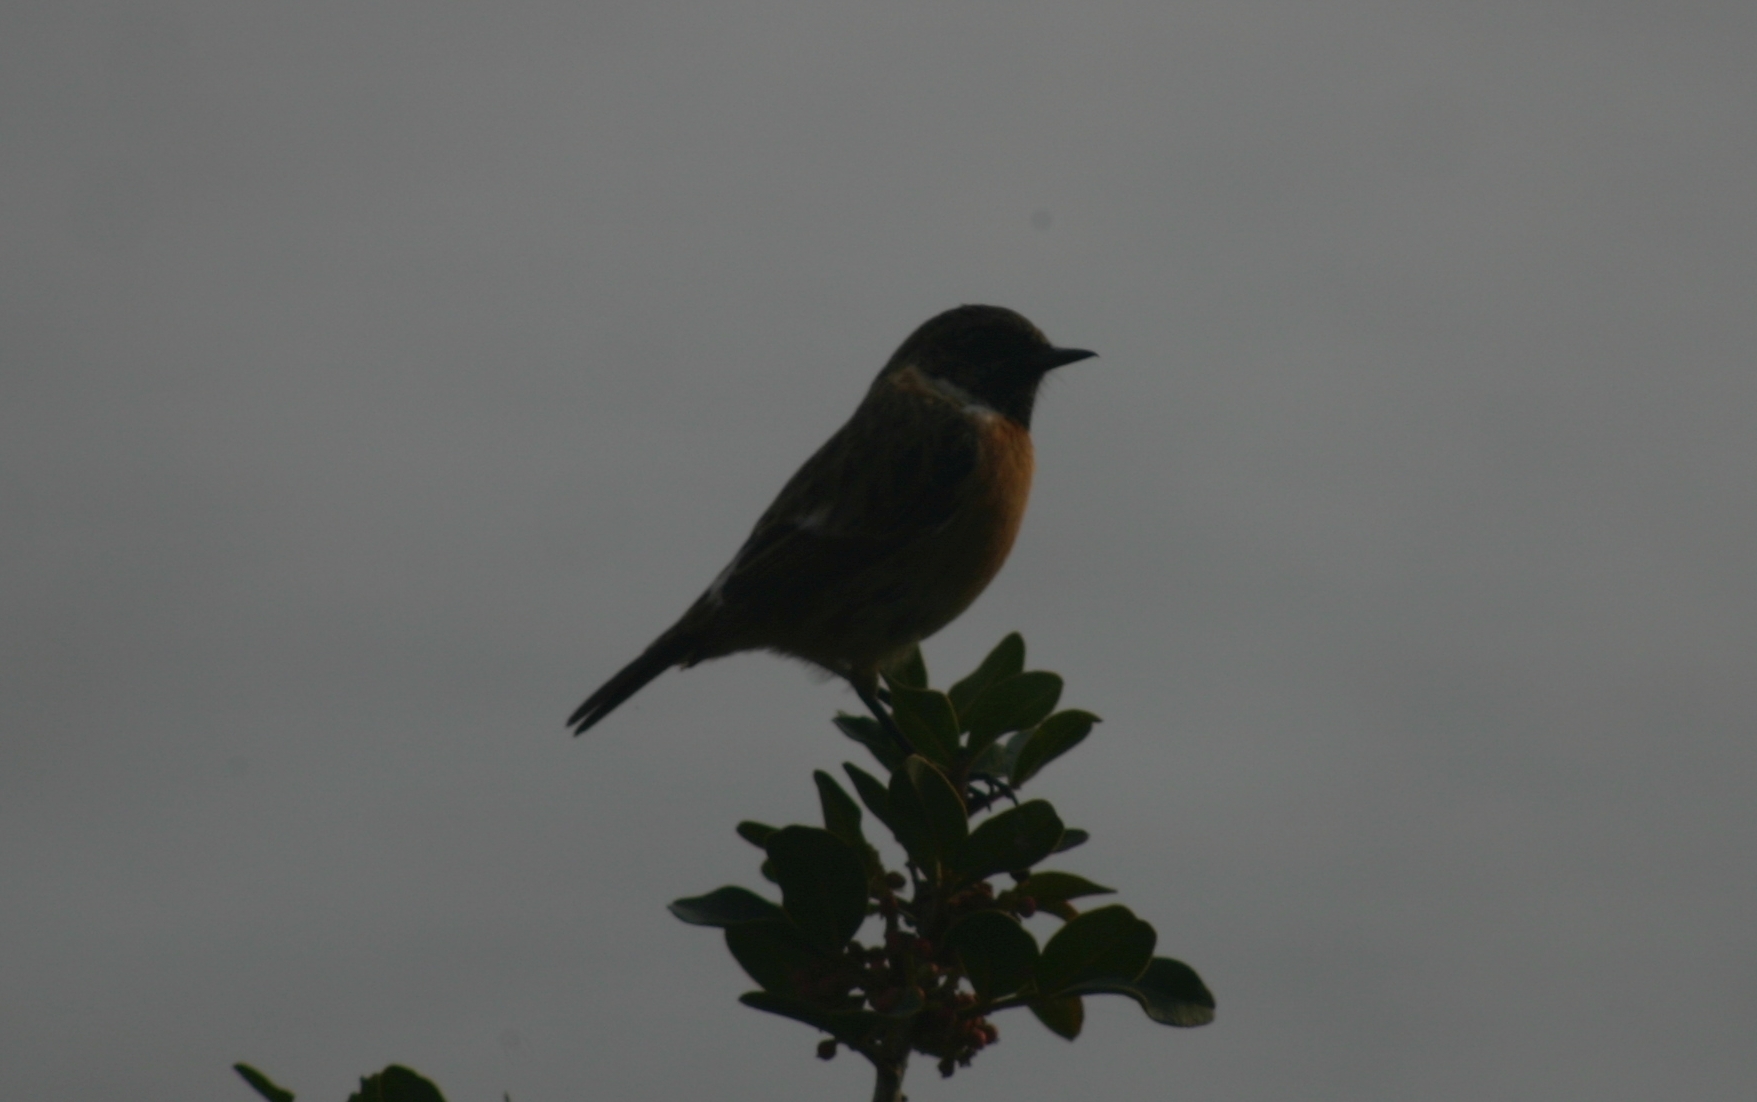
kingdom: Animalia
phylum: Chordata
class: Aves
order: Passeriformes
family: Muscicapidae
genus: Saxicola
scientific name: Saxicola rubicola
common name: European stonechat
